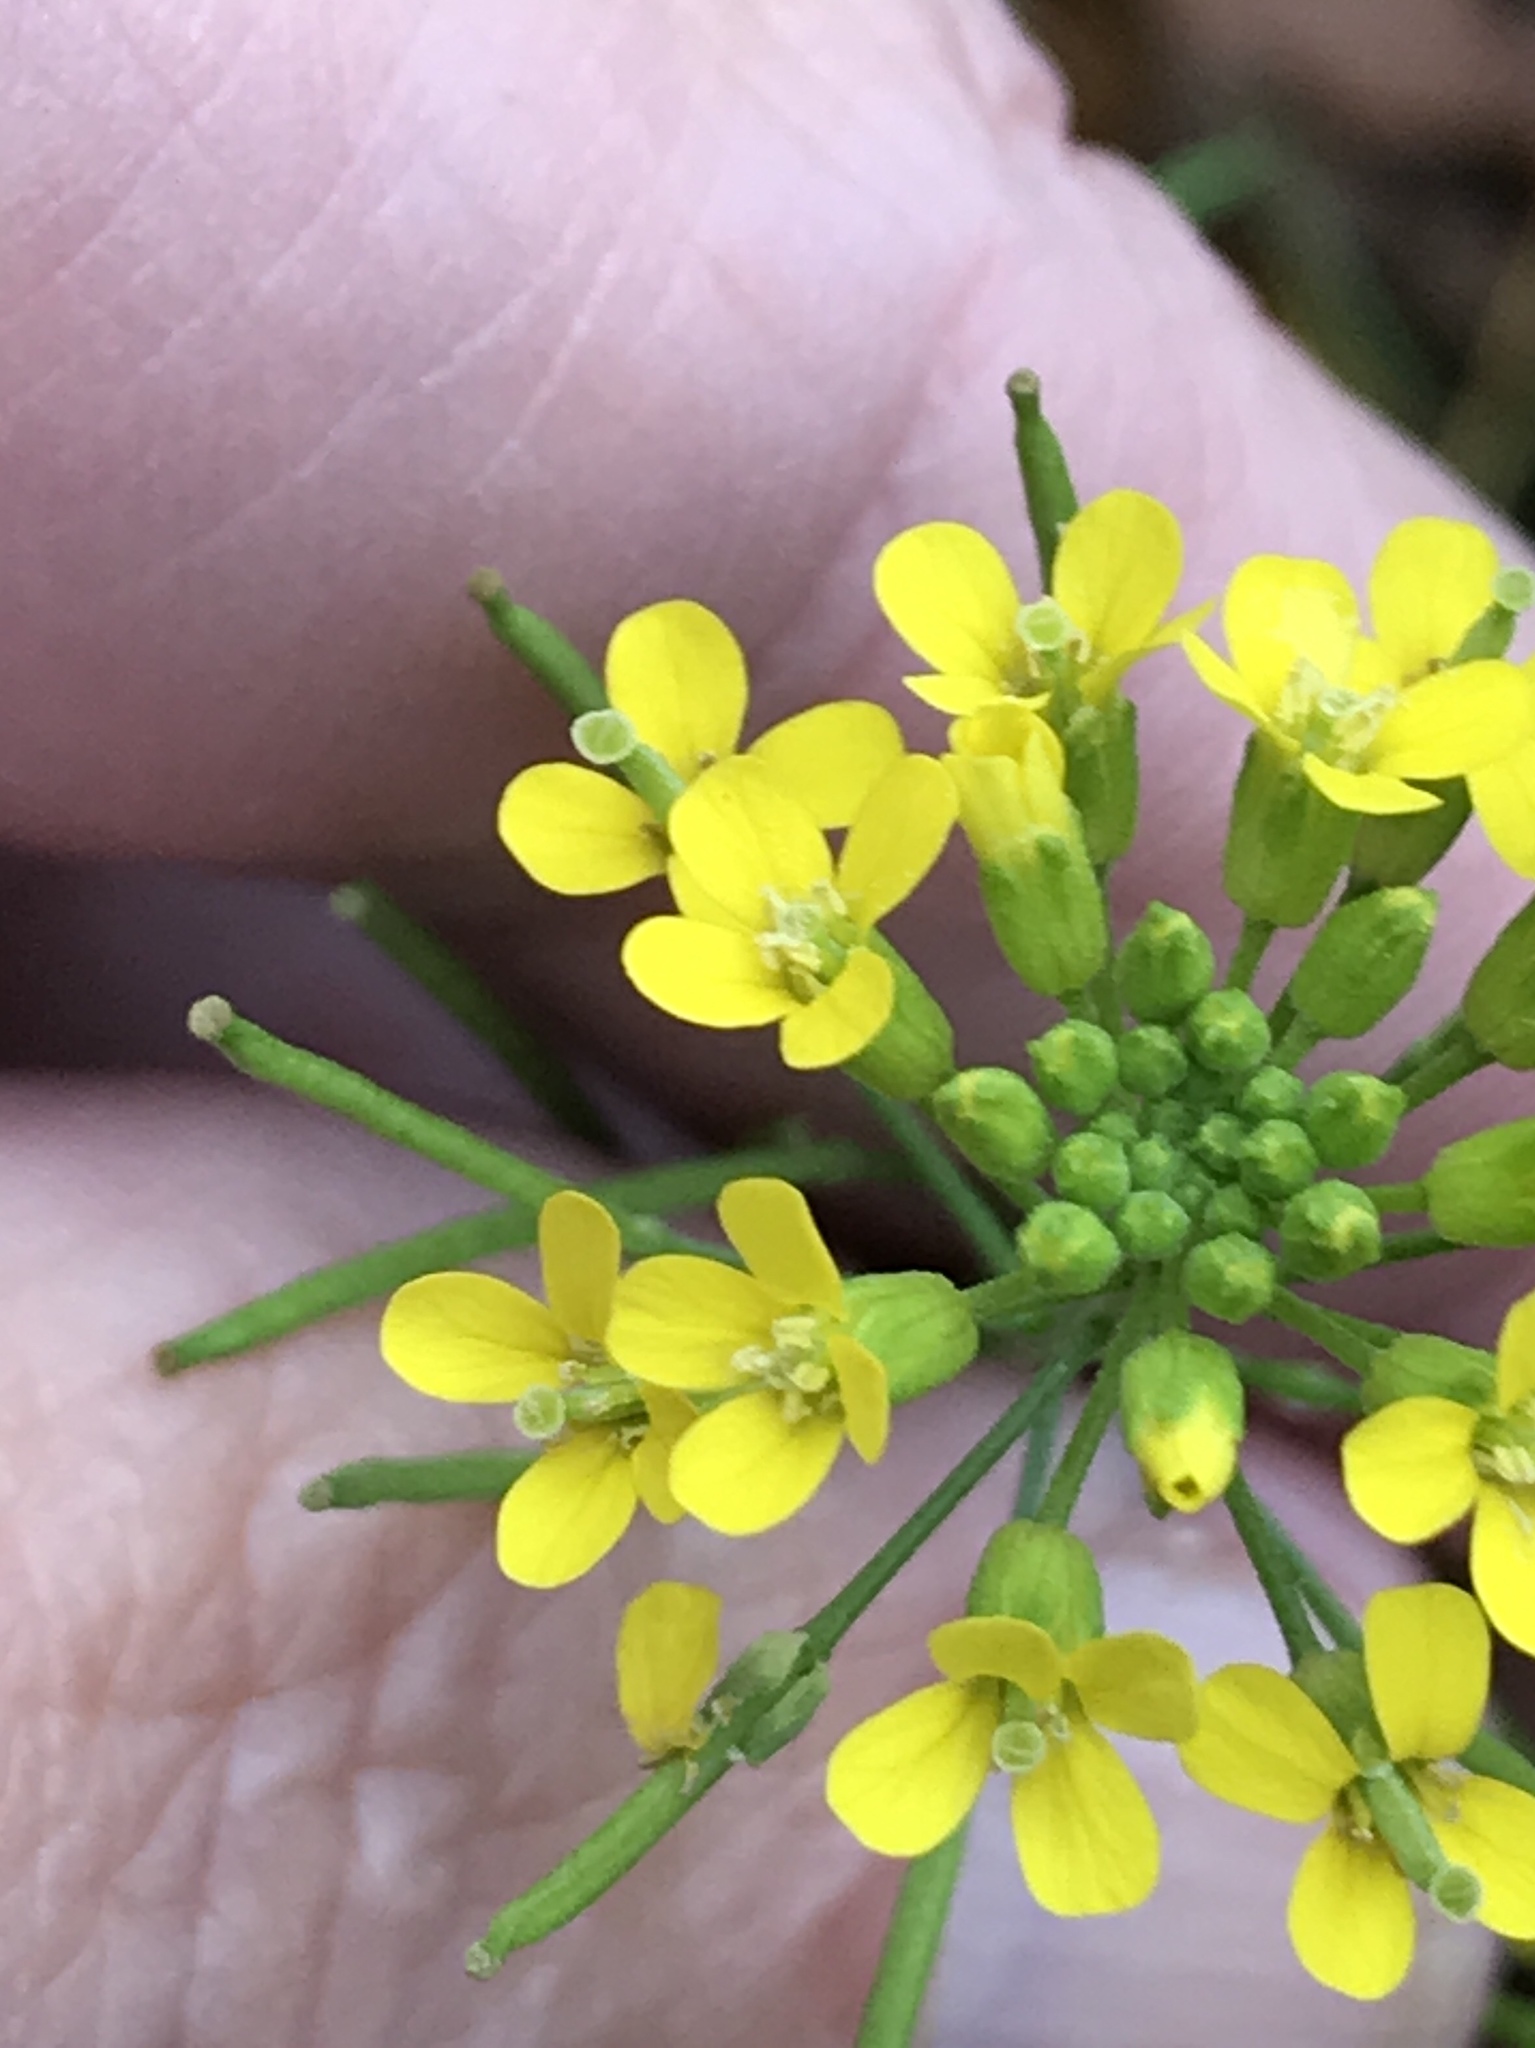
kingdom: Plantae
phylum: Tracheophyta
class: Magnoliopsida
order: Brassicales
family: Brassicaceae
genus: Erysimum
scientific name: Erysimum cheiranthoides
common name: Treacle mustard
